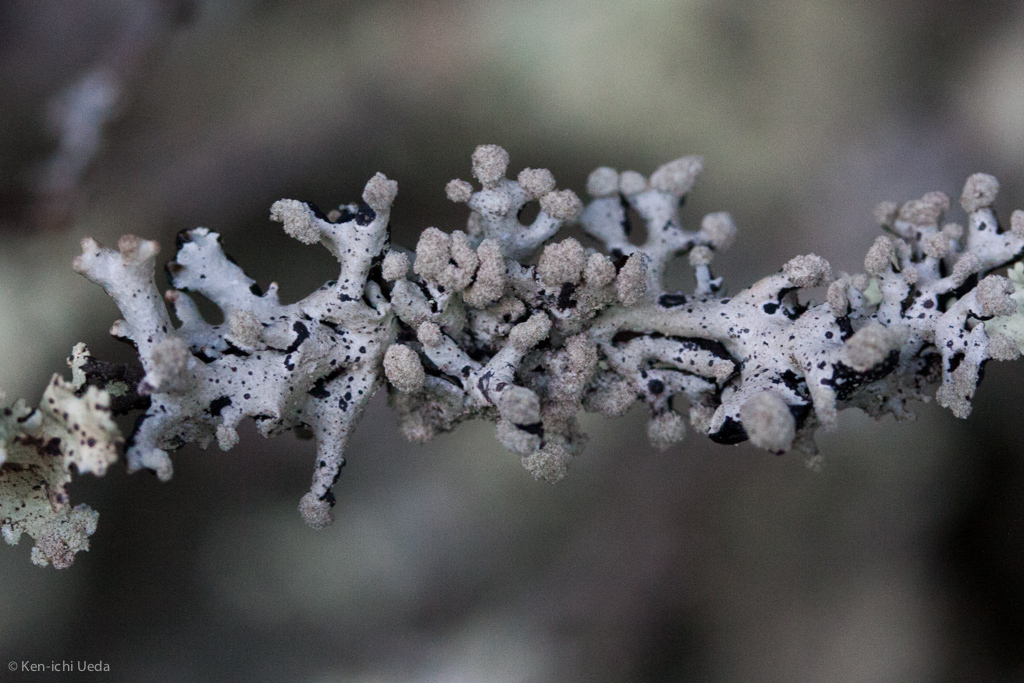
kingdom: Fungi
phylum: Ascomycota
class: Lecanoromycetes
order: Lecanorales
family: Parmeliaceae
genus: Hypogymnia
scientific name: Hypogymnia tubulosa
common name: Powder-headed tube lichen
